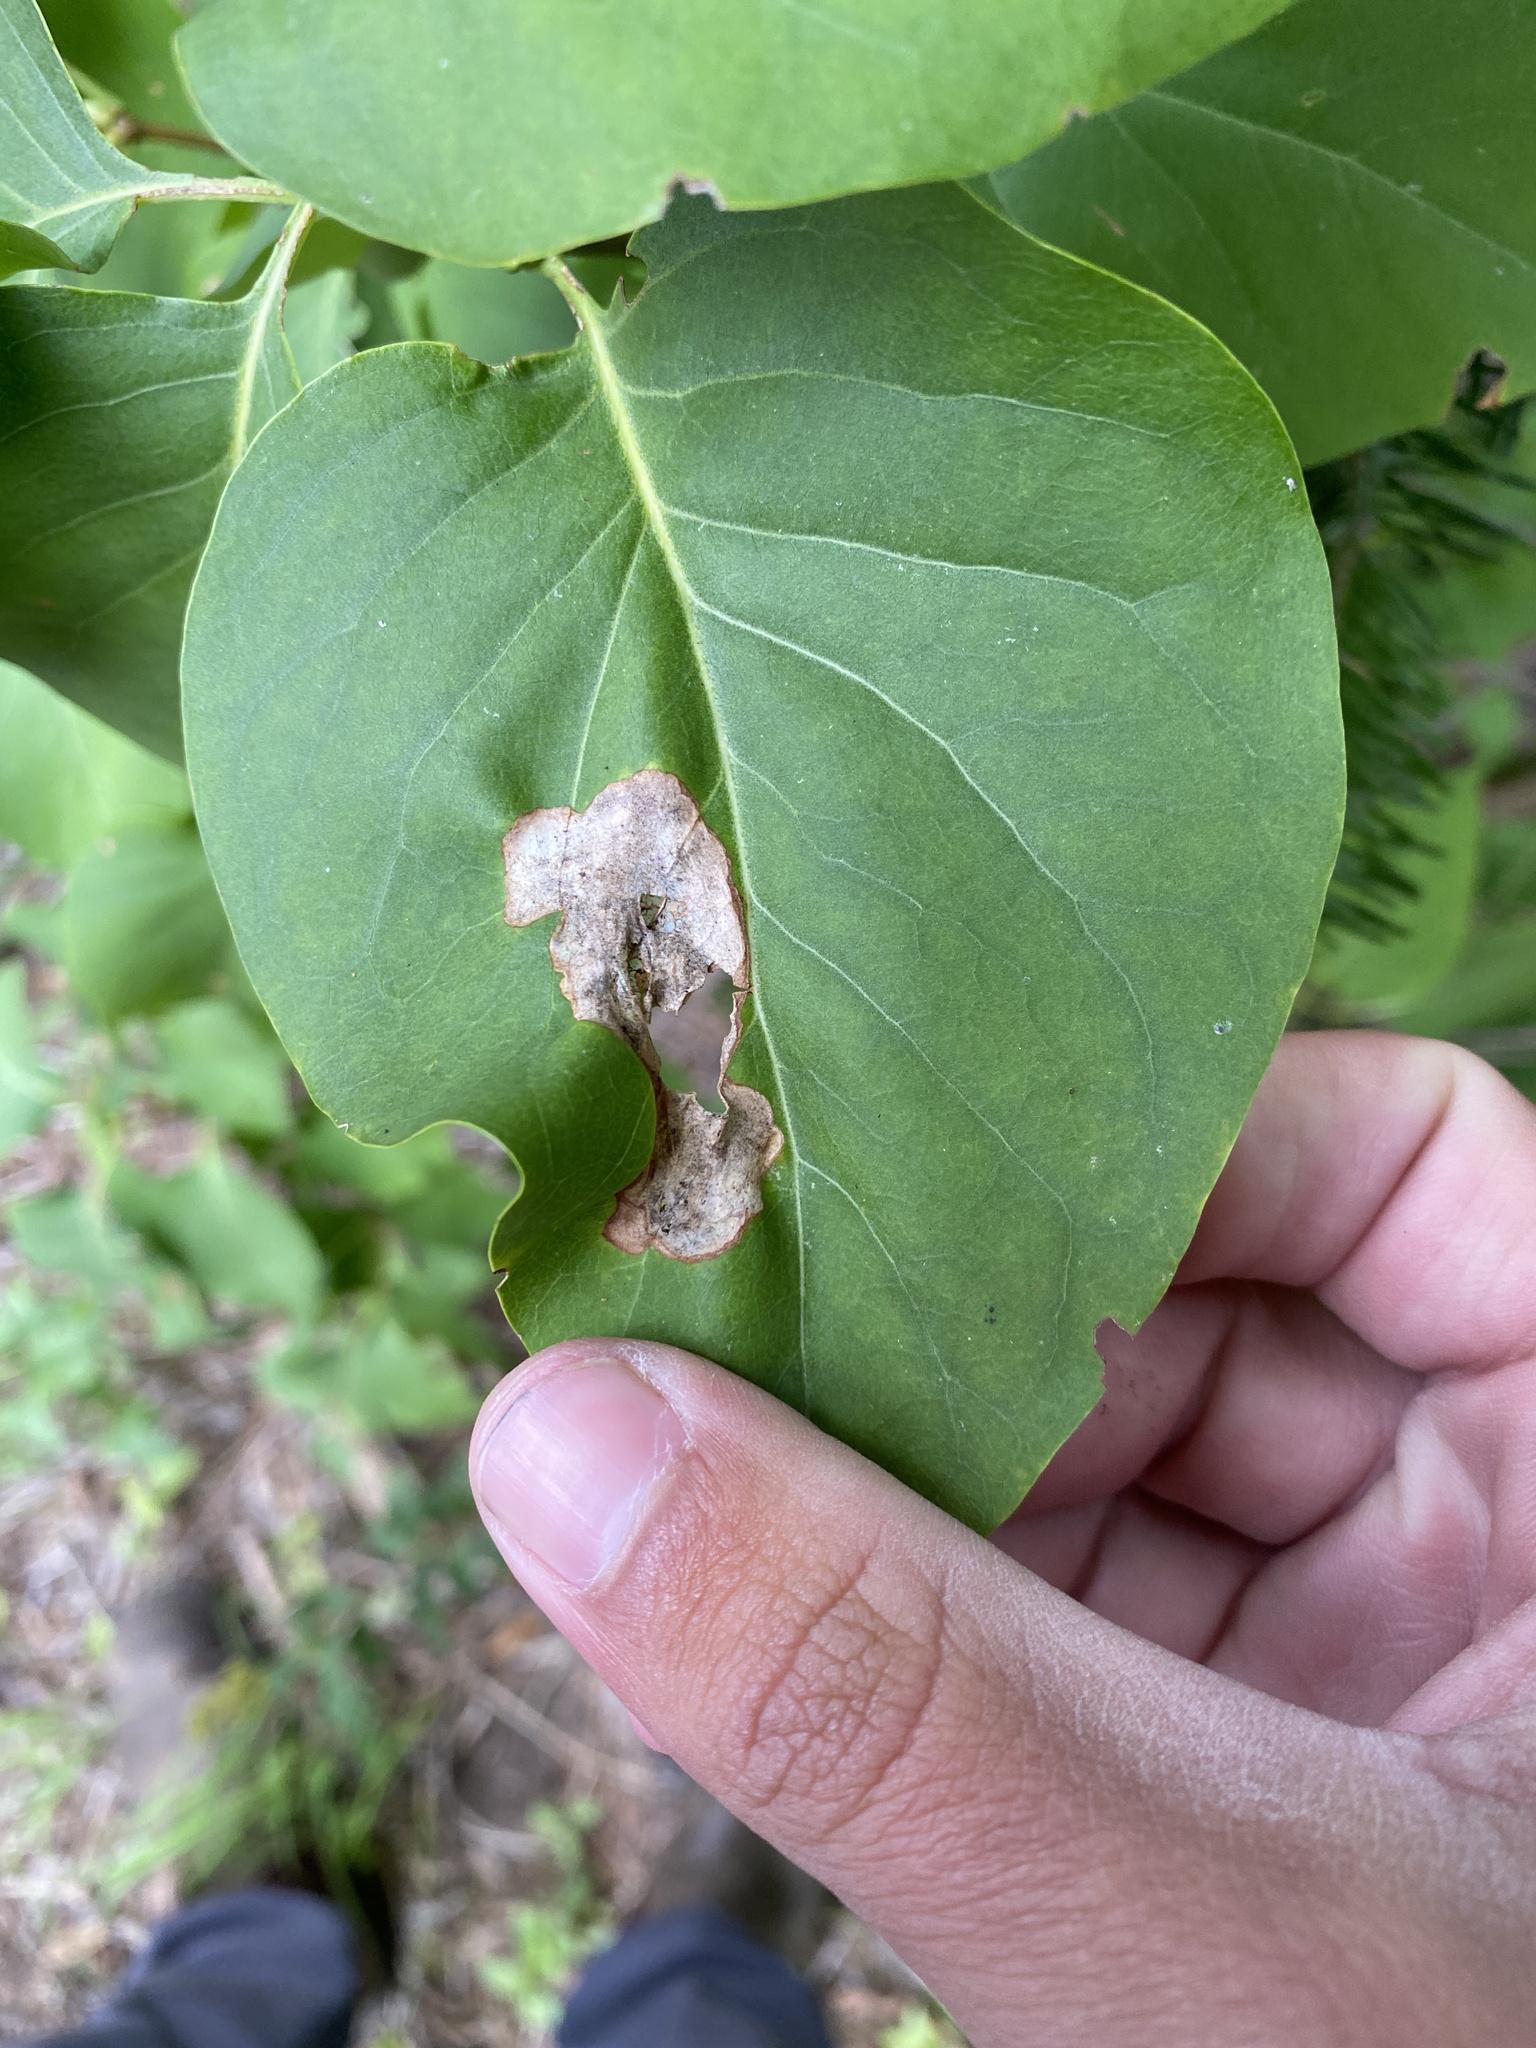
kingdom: Animalia
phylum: Arthropoda
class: Insecta
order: Lepidoptera
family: Gracillariidae
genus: Gracillaria
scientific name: Gracillaria syringella
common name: Common slender
